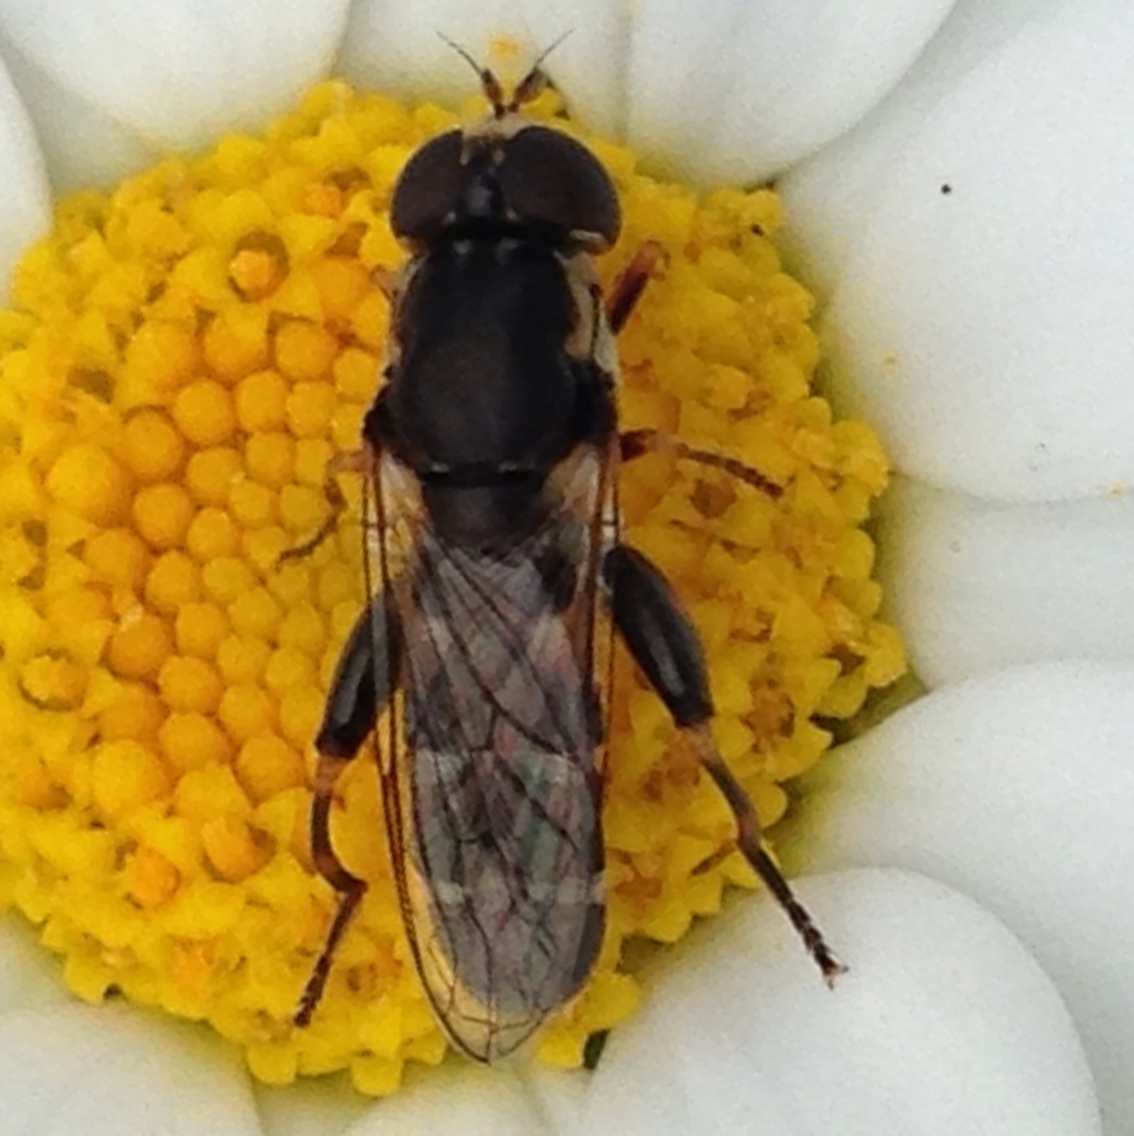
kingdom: Animalia
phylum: Arthropoda
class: Insecta
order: Diptera
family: Syrphidae
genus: Syritta
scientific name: Syritta pipiens
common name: Hover fly
